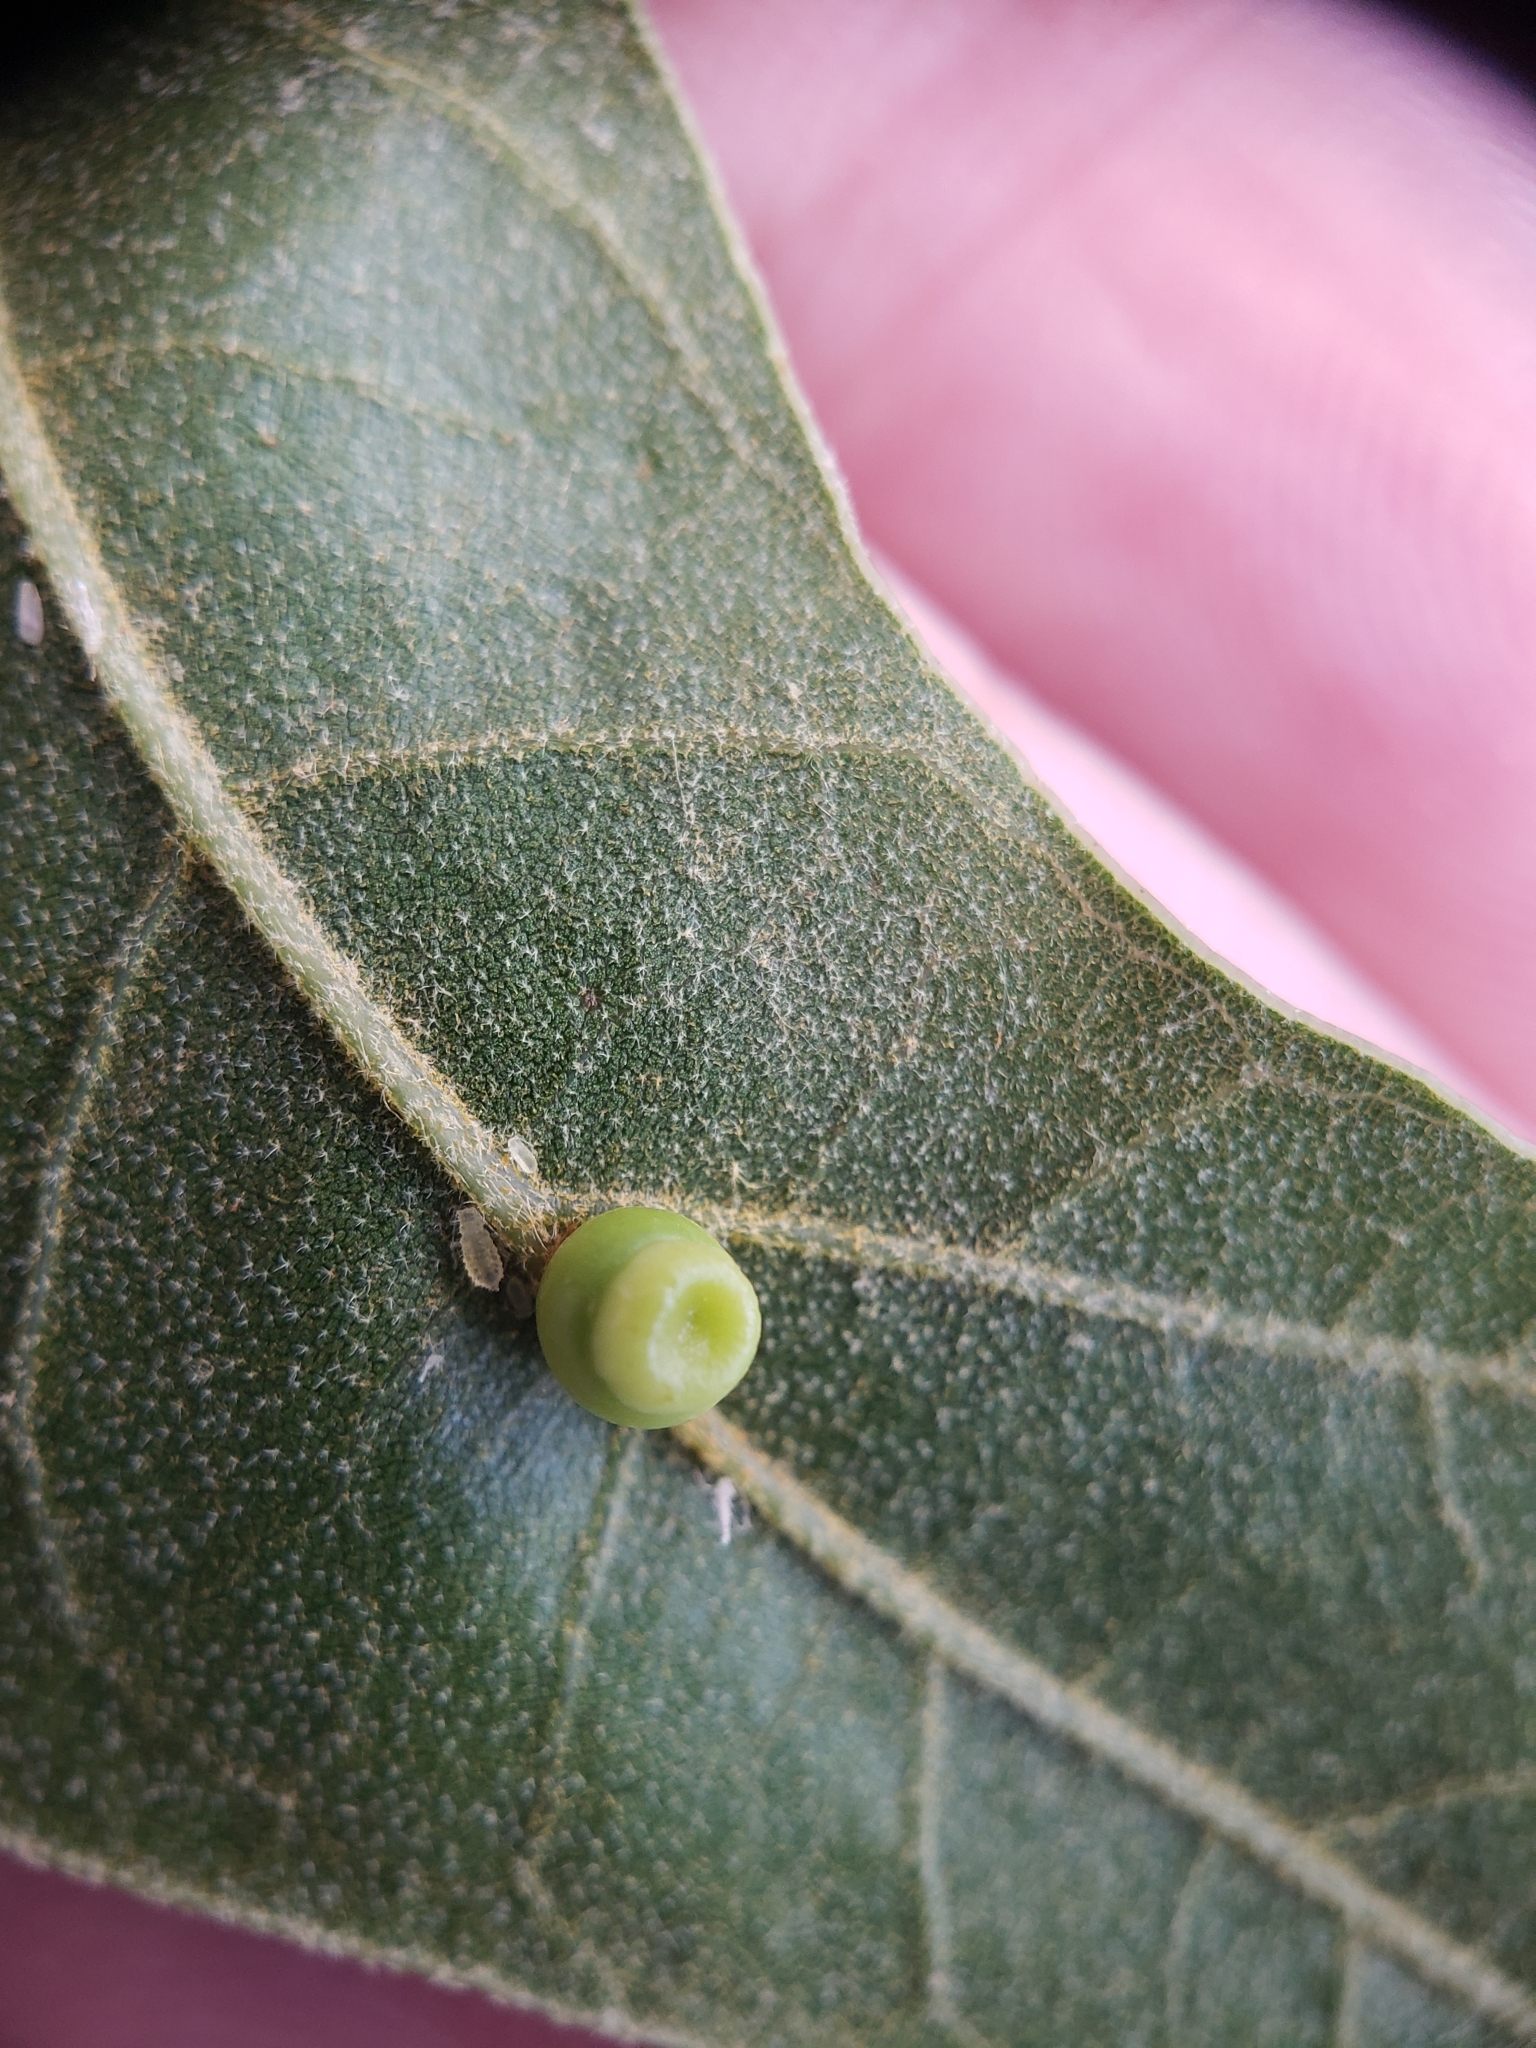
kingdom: Animalia
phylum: Arthropoda
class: Insecta
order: Hymenoptera
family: Cynipidae
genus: Kokkocynips
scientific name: Kokkocynips rileyi
